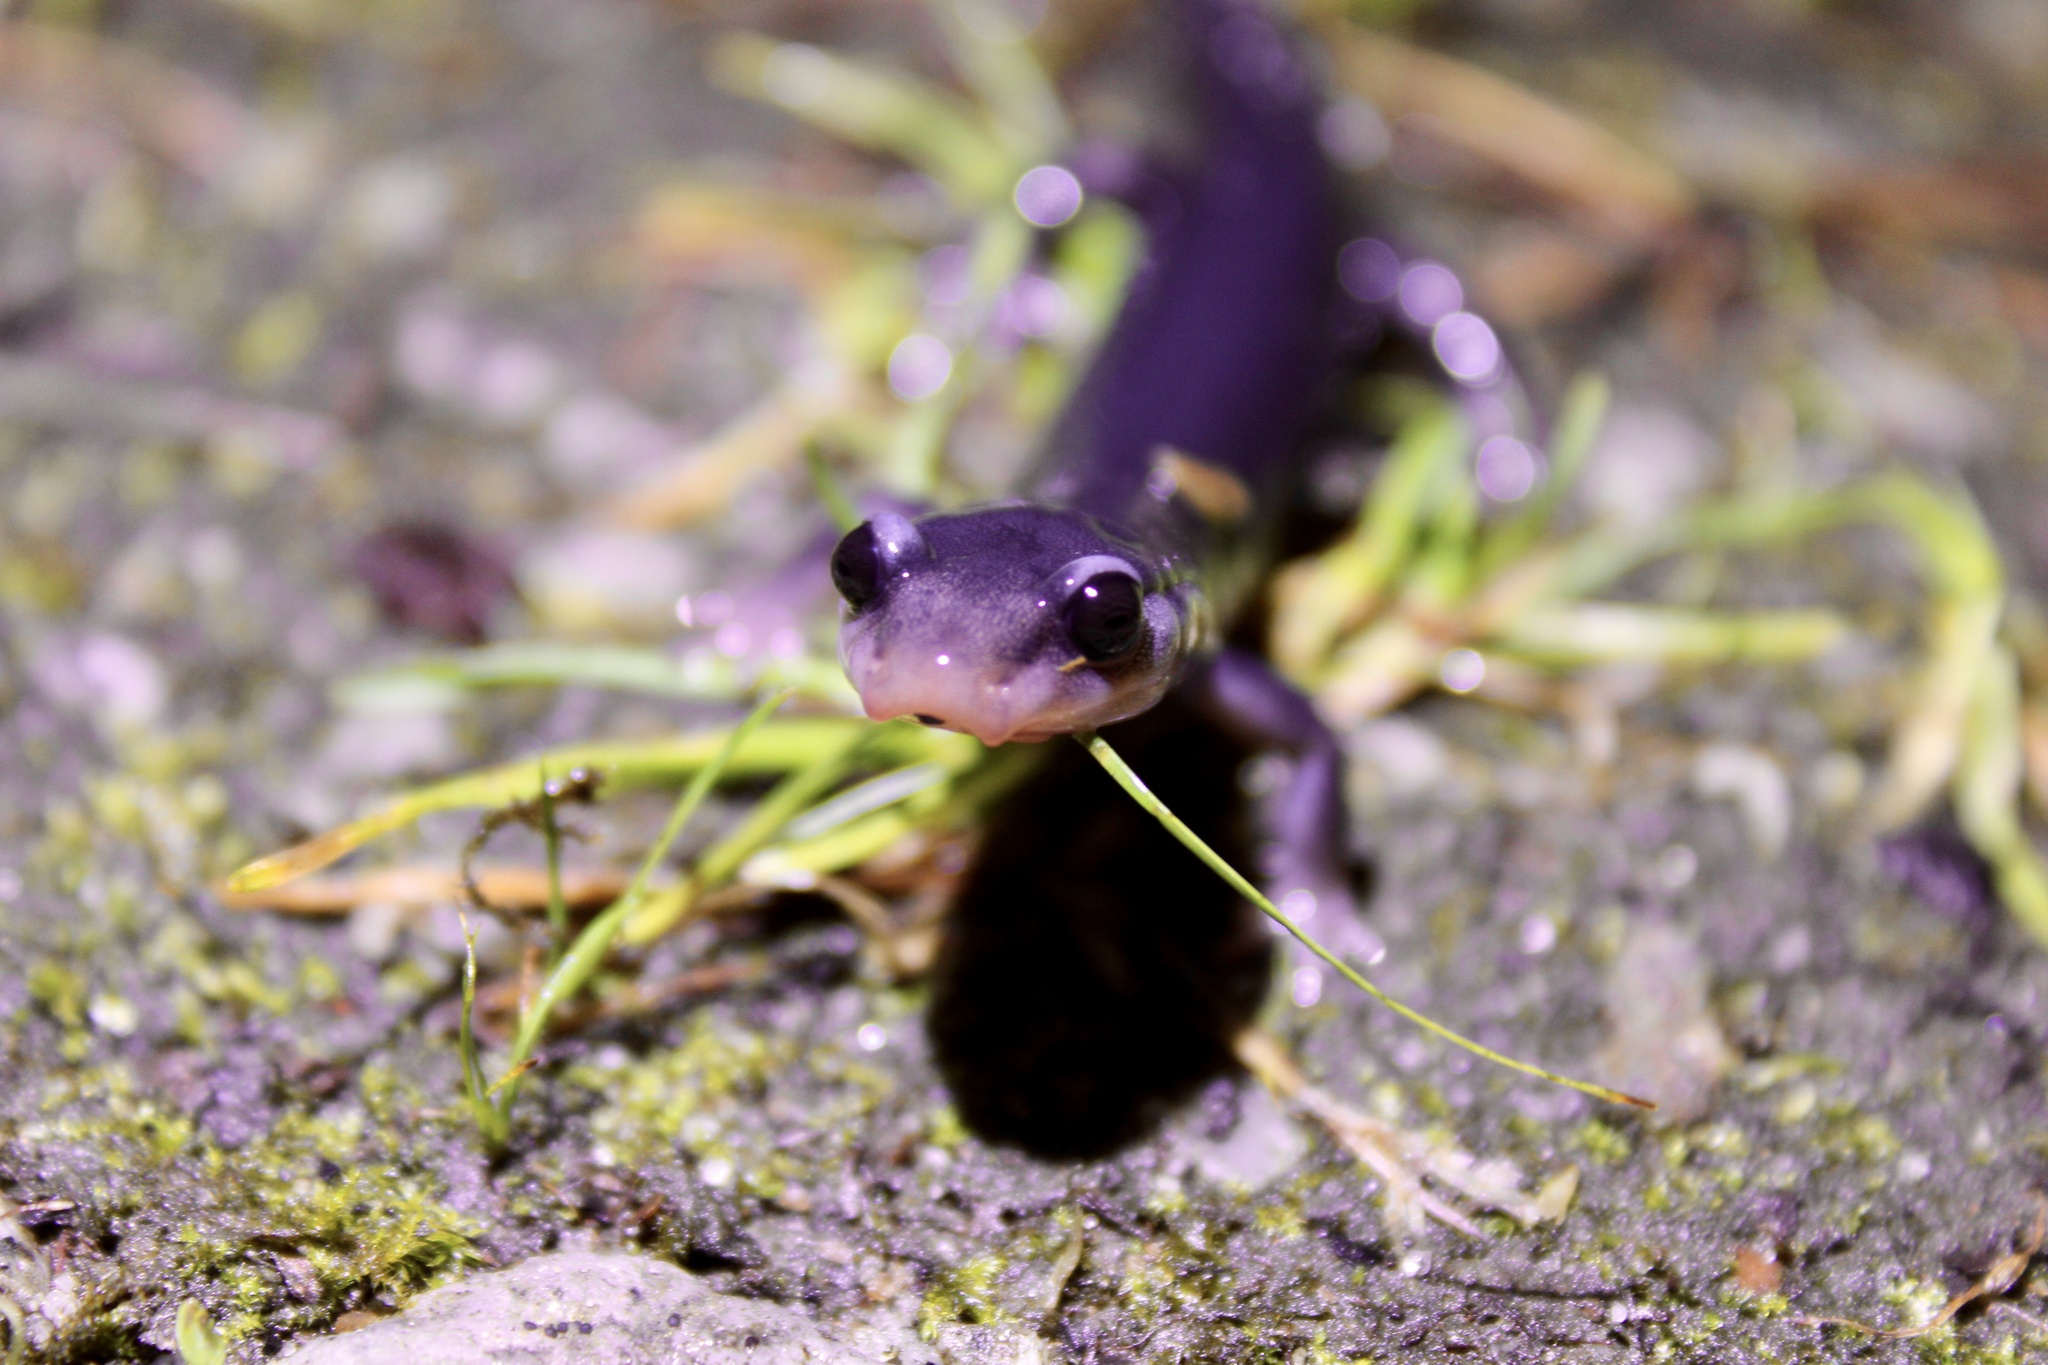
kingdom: Animalia
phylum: Chordata
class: Amphibia
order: Caudata
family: Plethodontidae
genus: Plethodon
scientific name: Plethodon metcalfi
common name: Southern gray-cheeked salamander
